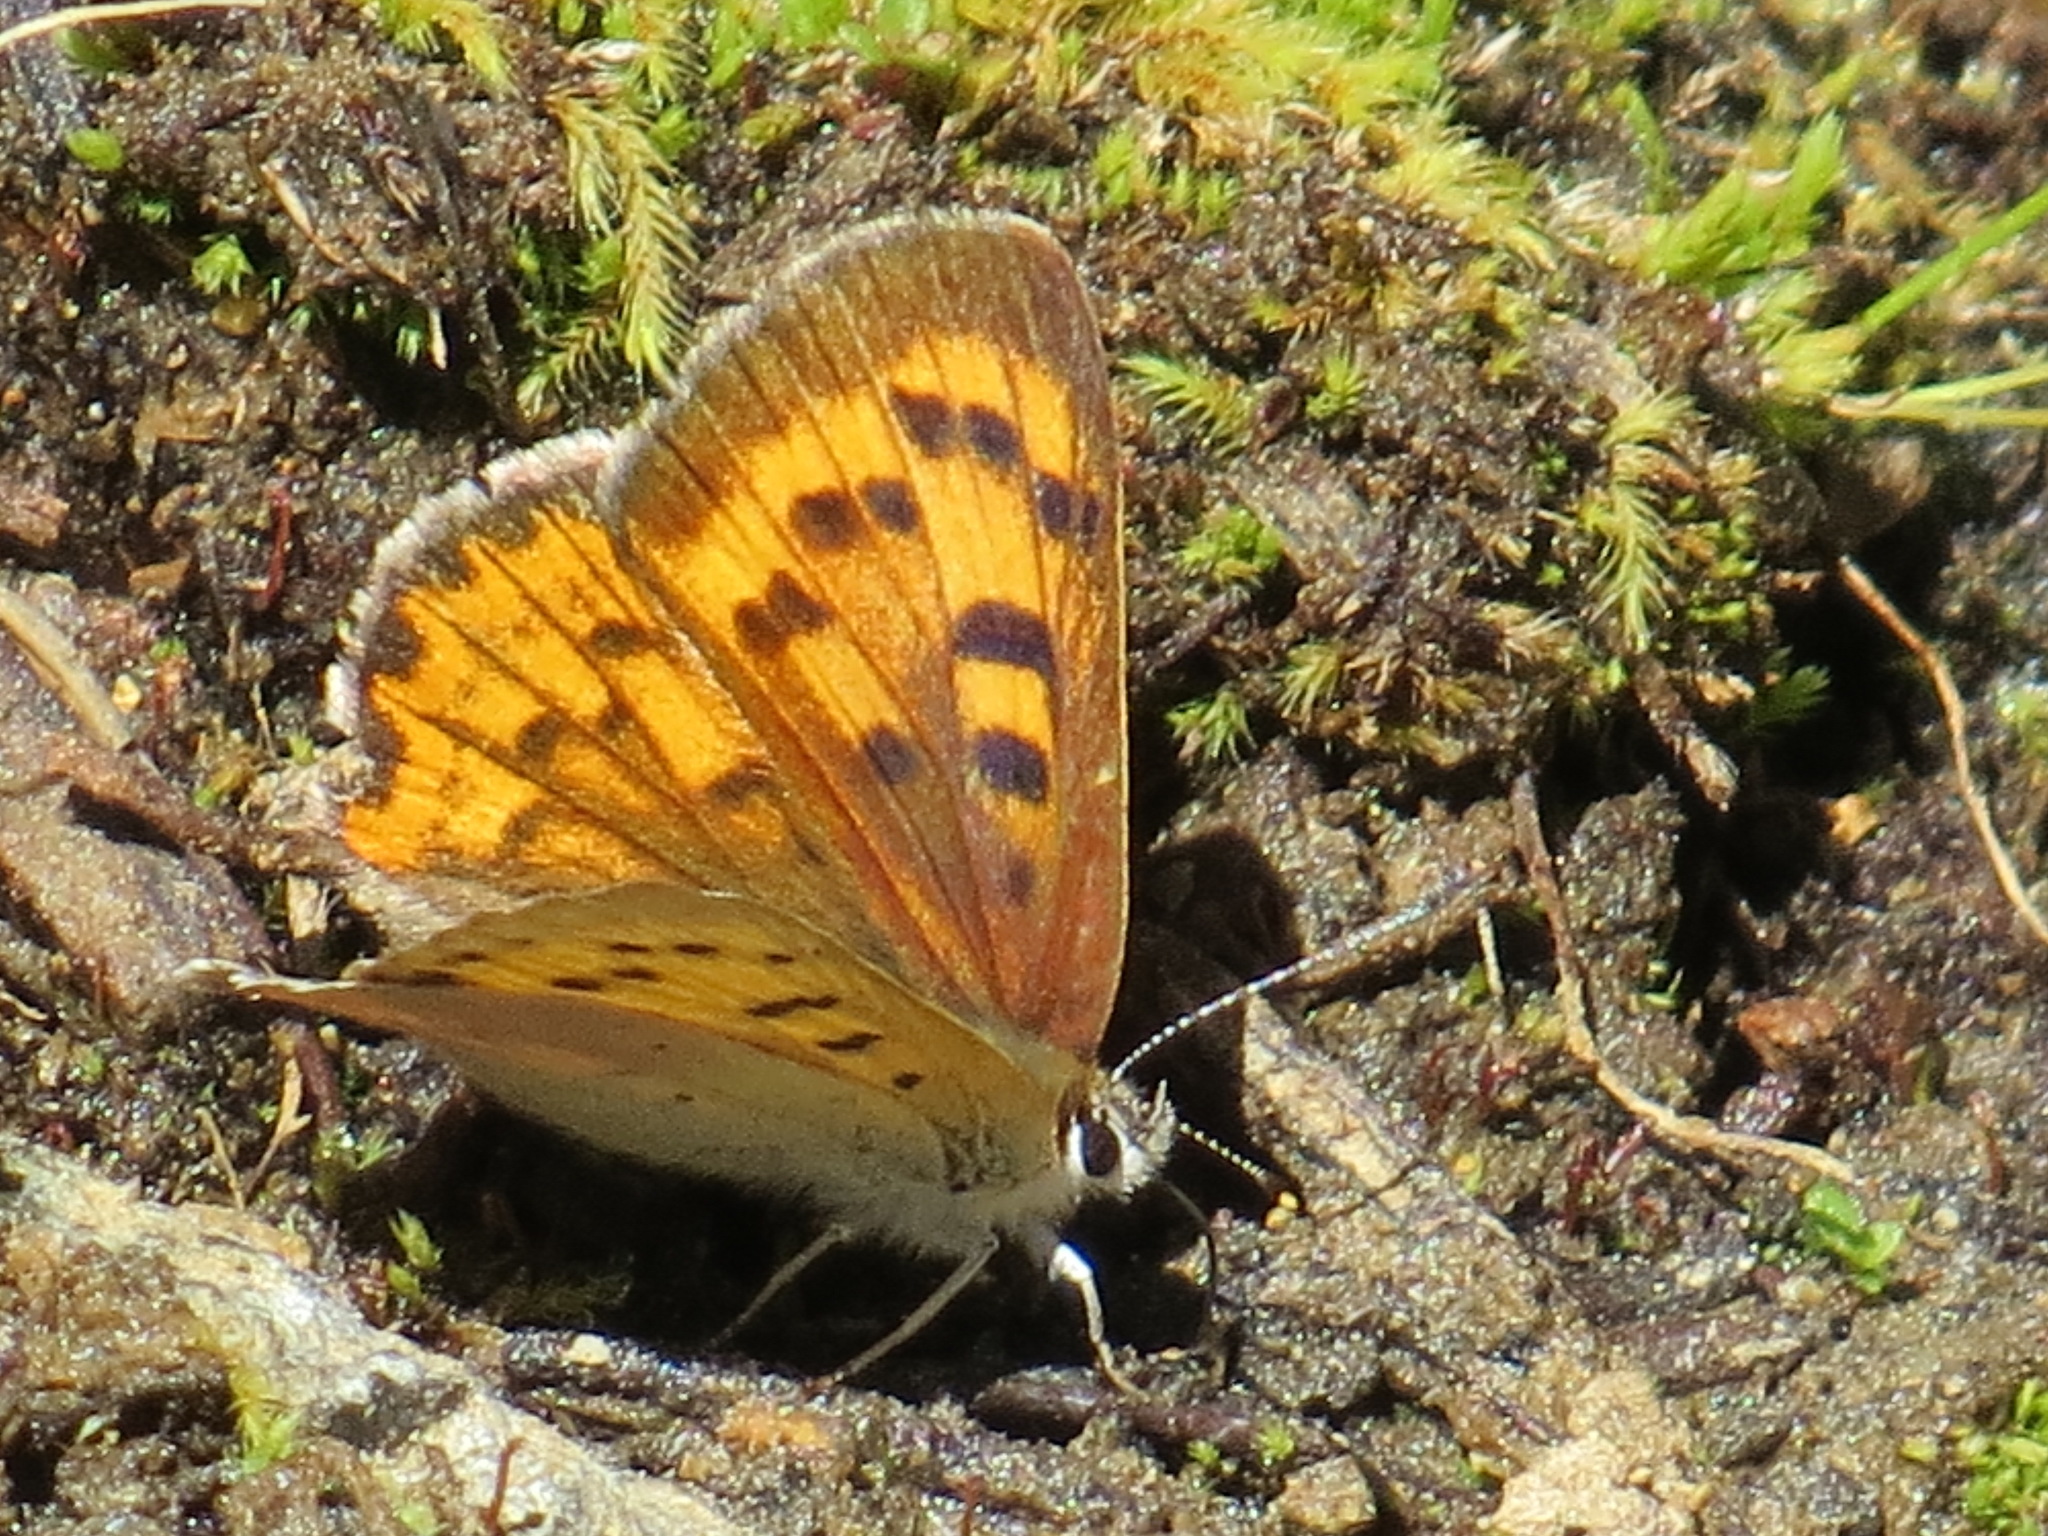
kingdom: Animalia
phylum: Arthropoda
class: Insecta
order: Lepidoptera
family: Lycaenidae
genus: Tharsalea
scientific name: Tharsalea helloides
